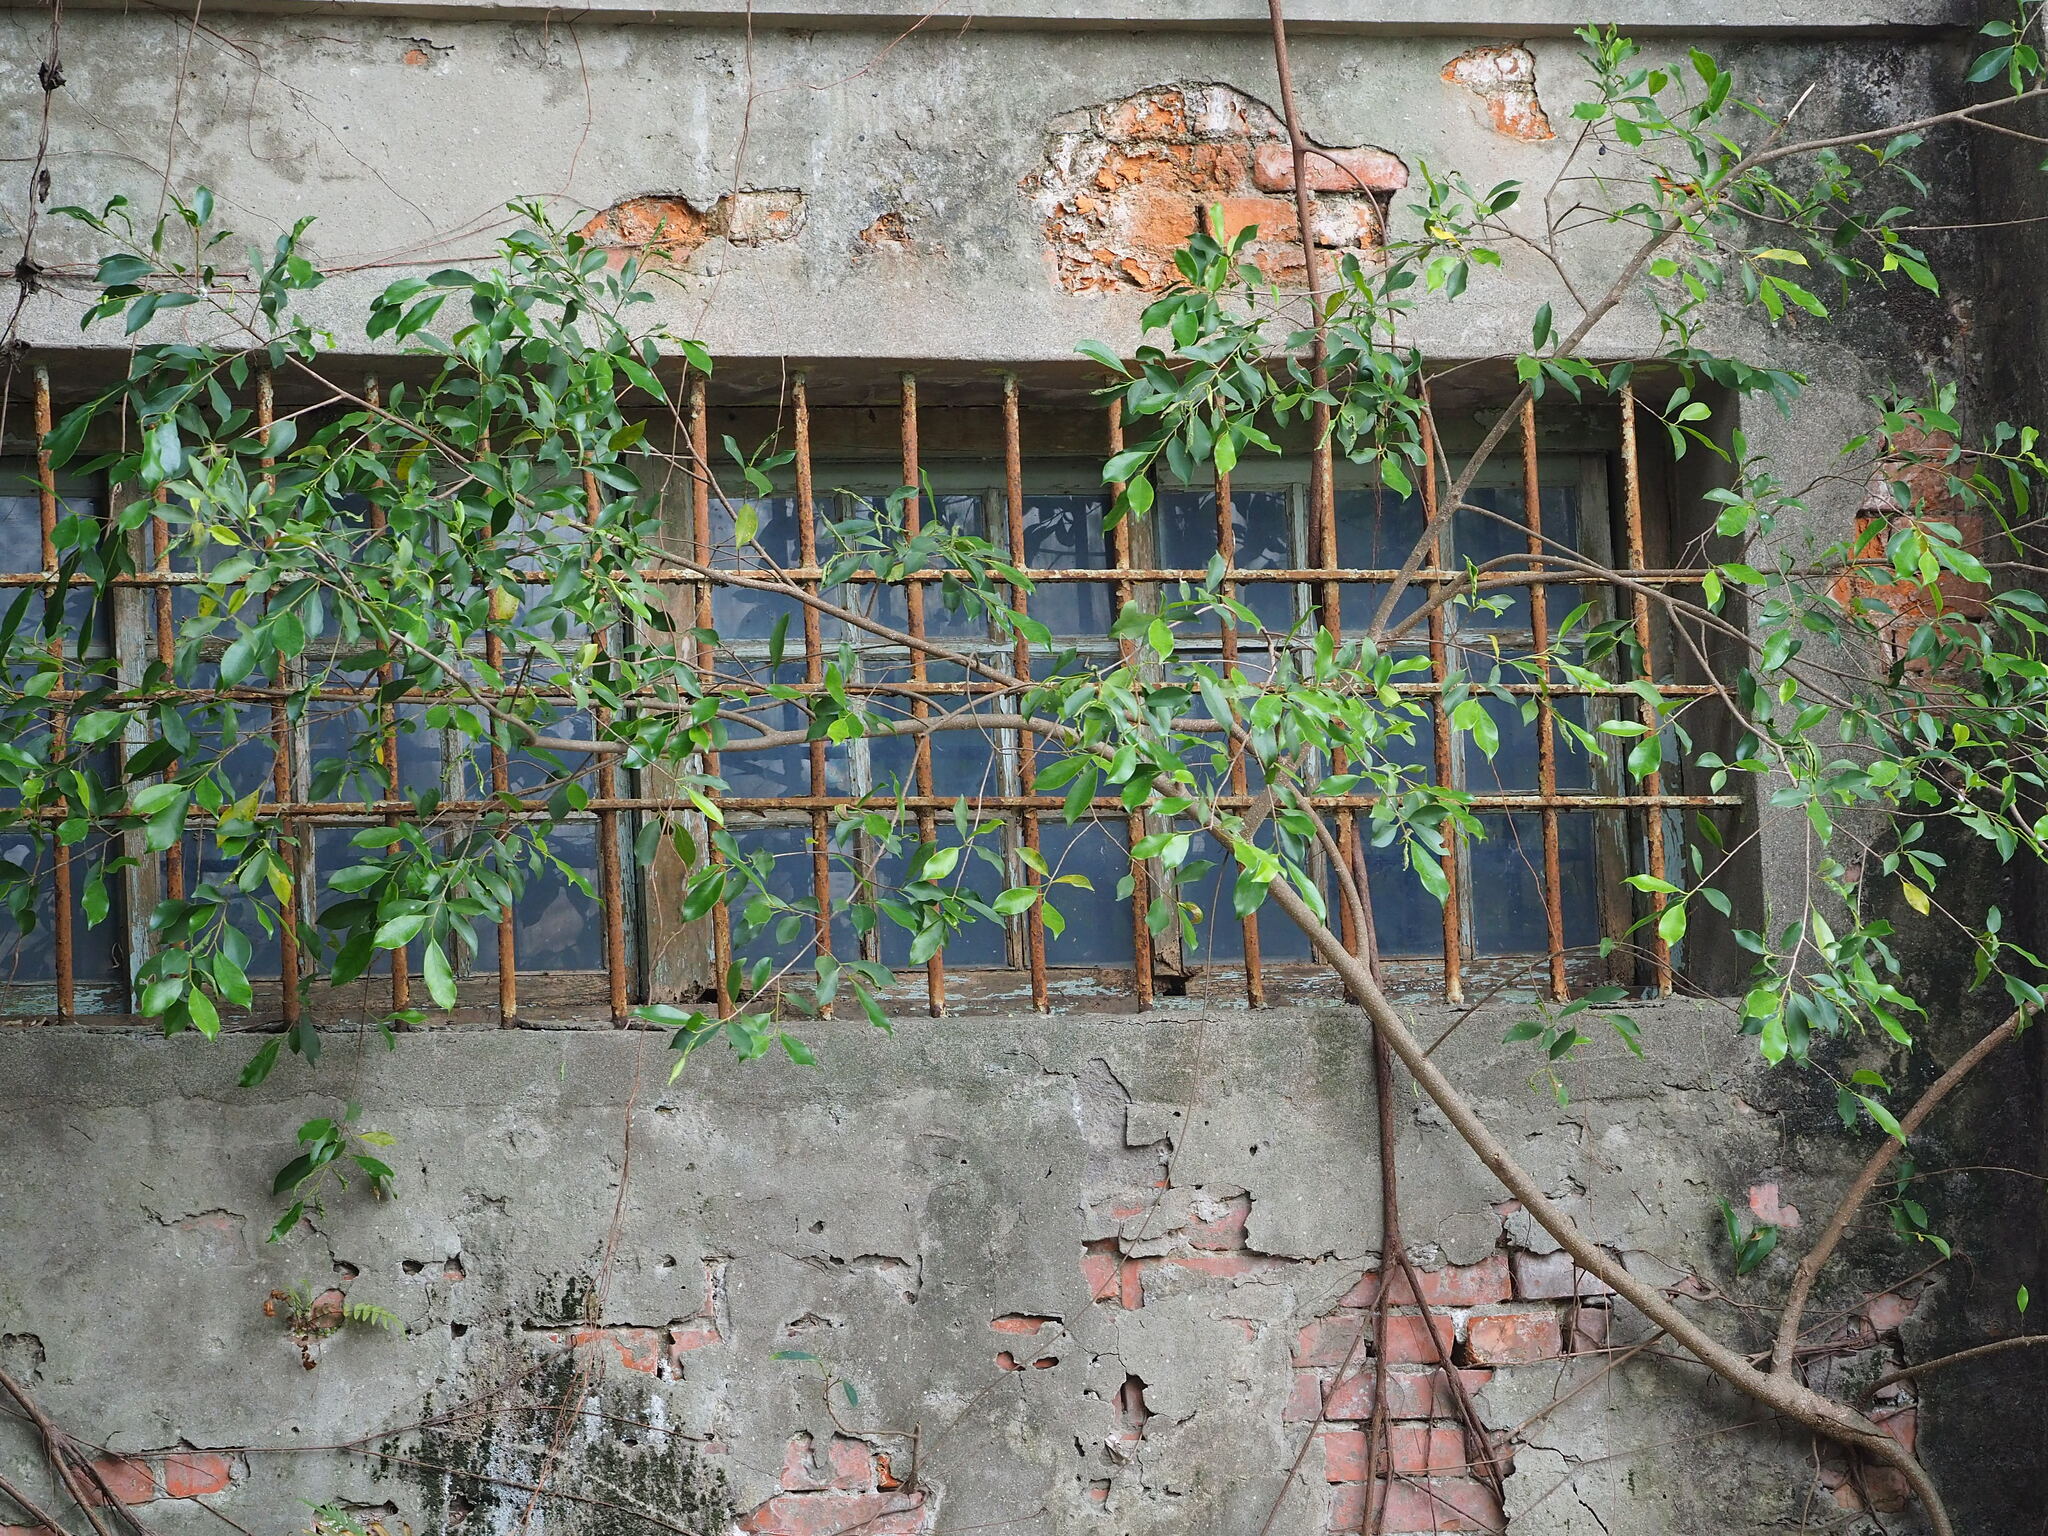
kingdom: Plantae
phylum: Tracheophyta
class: Magnoliopsida
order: Rosales
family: Moraceae
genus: Ficus
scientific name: Ficus microcarpa
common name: Chinese banyan
